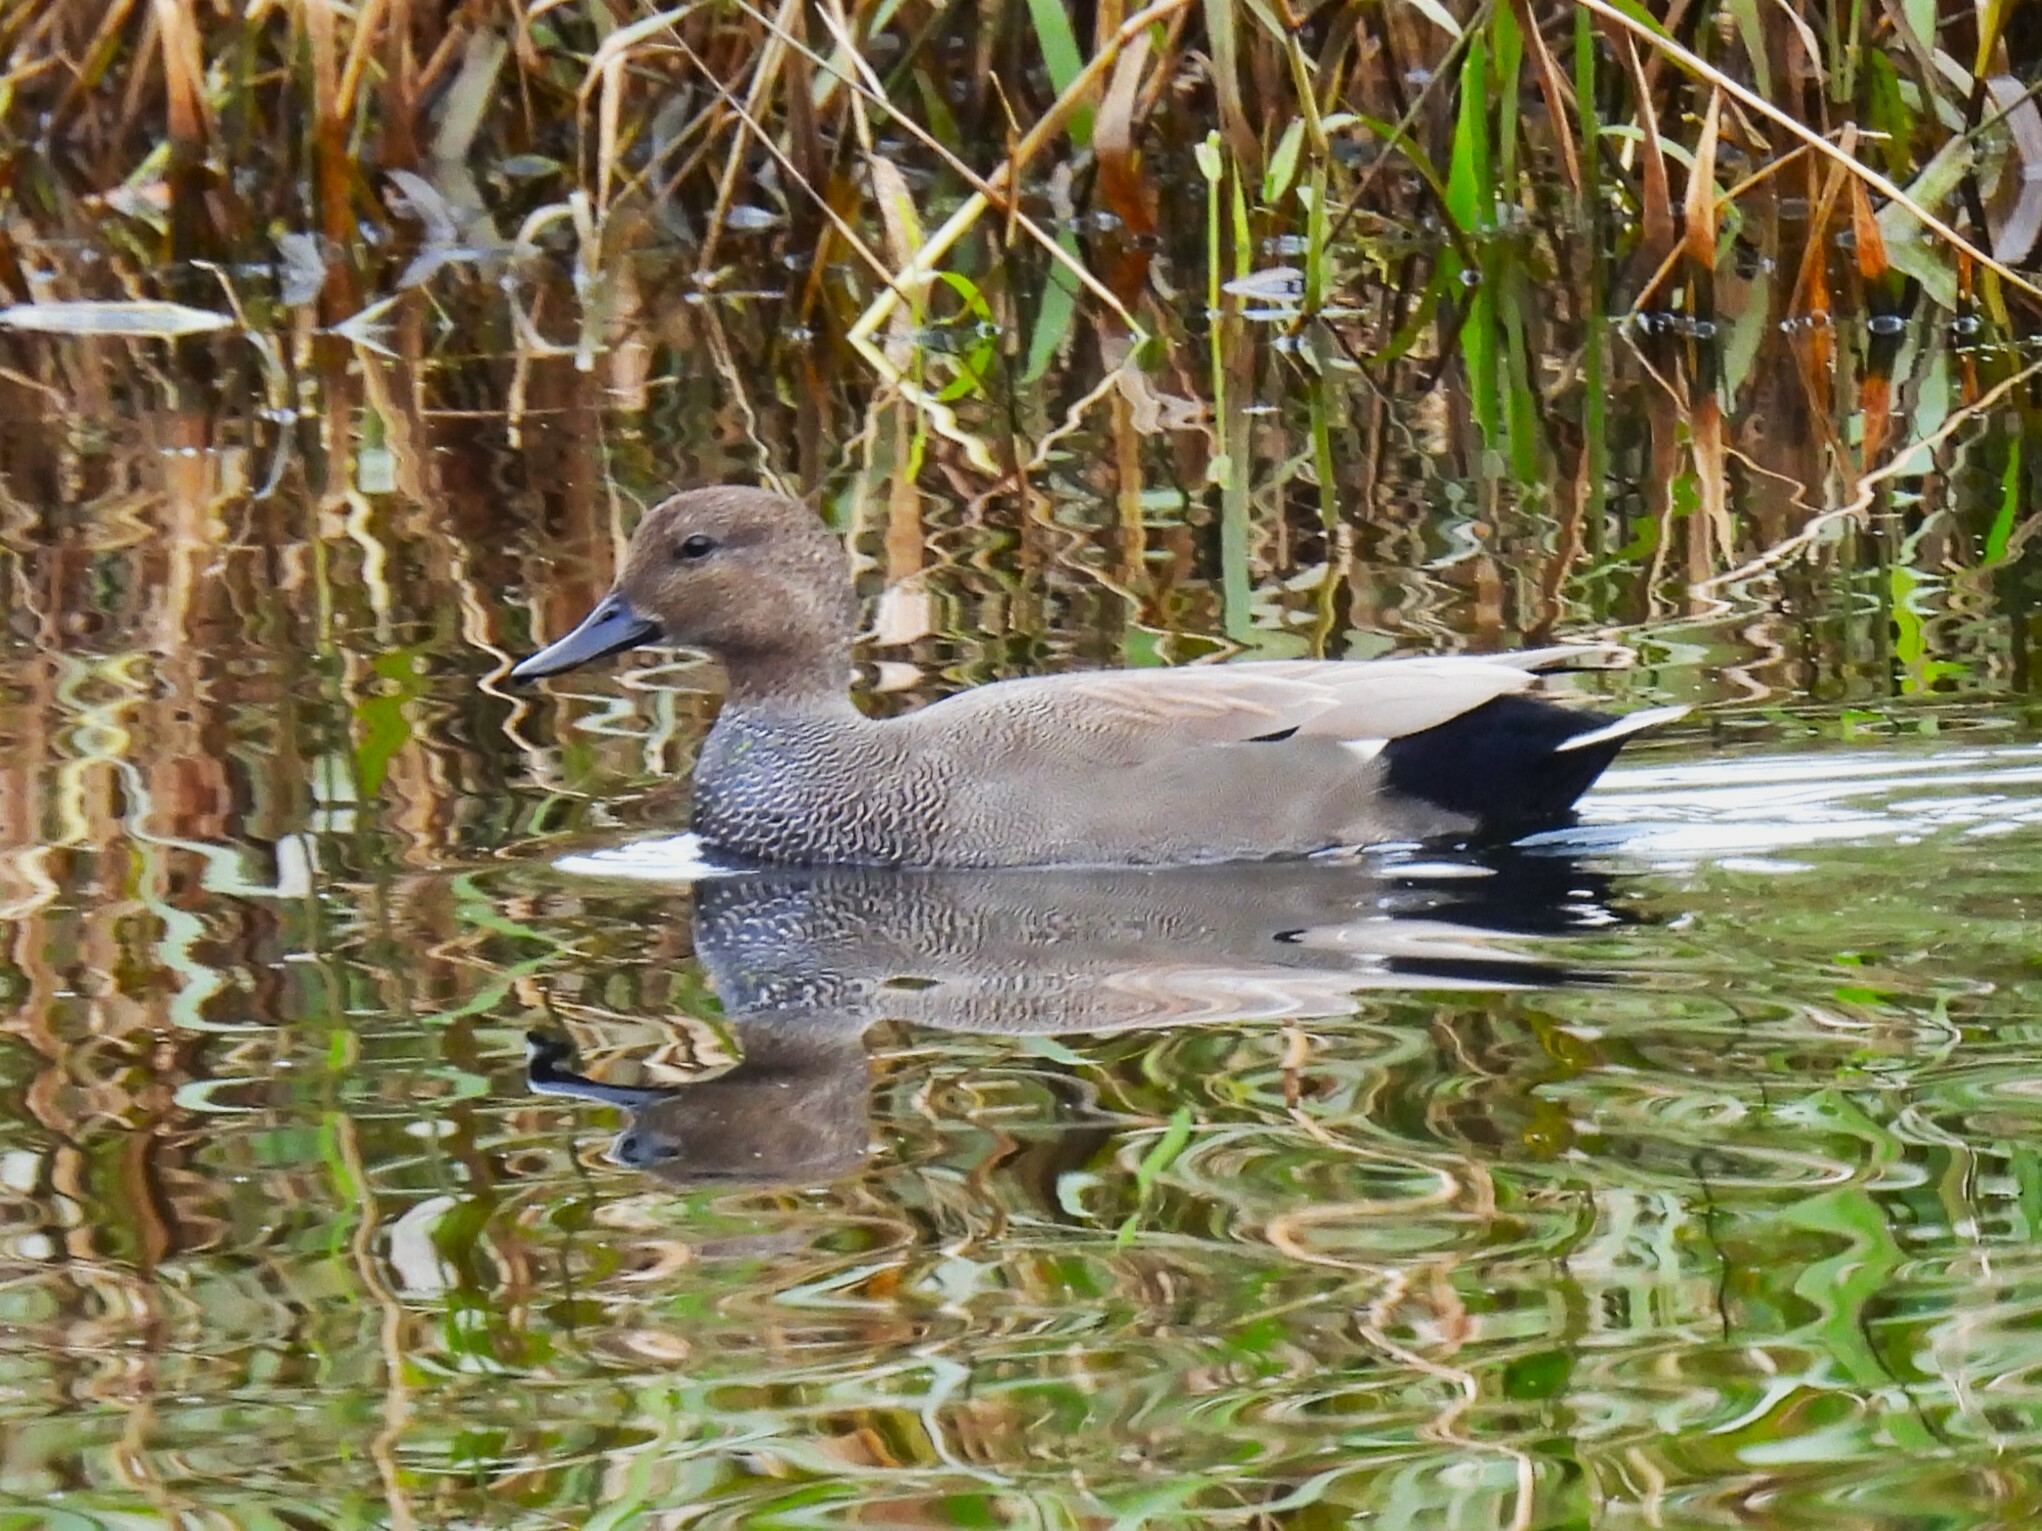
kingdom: Animalia
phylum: Chordata
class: Aves
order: Anseriformes
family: Anatidae
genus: Mareca
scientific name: Mareca strepera
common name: Gadwall
